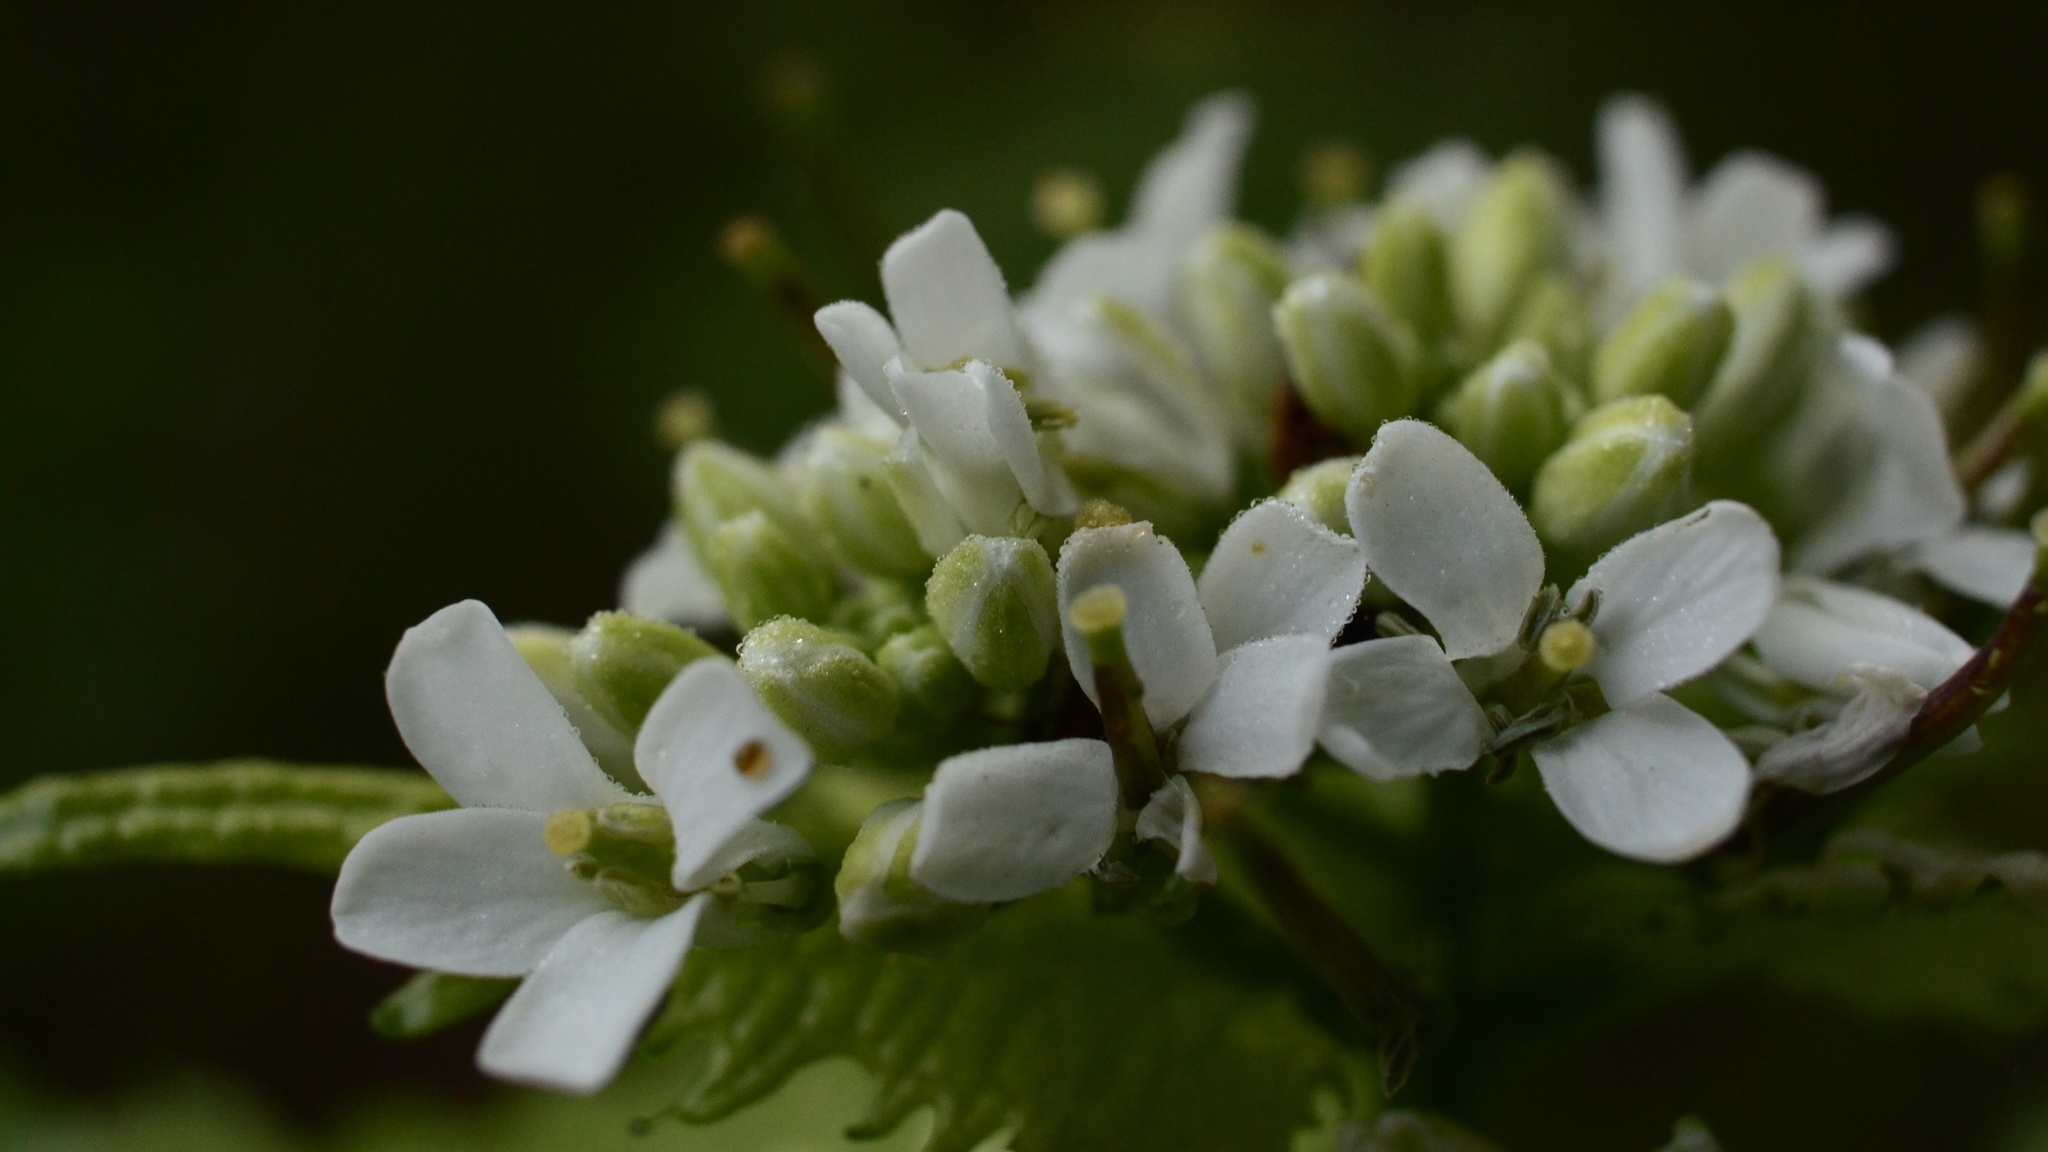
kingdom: Plantae
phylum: Tracheophyta
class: Magnoliopsida
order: Brassicales
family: Brassicaceae
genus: Alliaria
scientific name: Alliaria petiolata
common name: Garlic mustard
